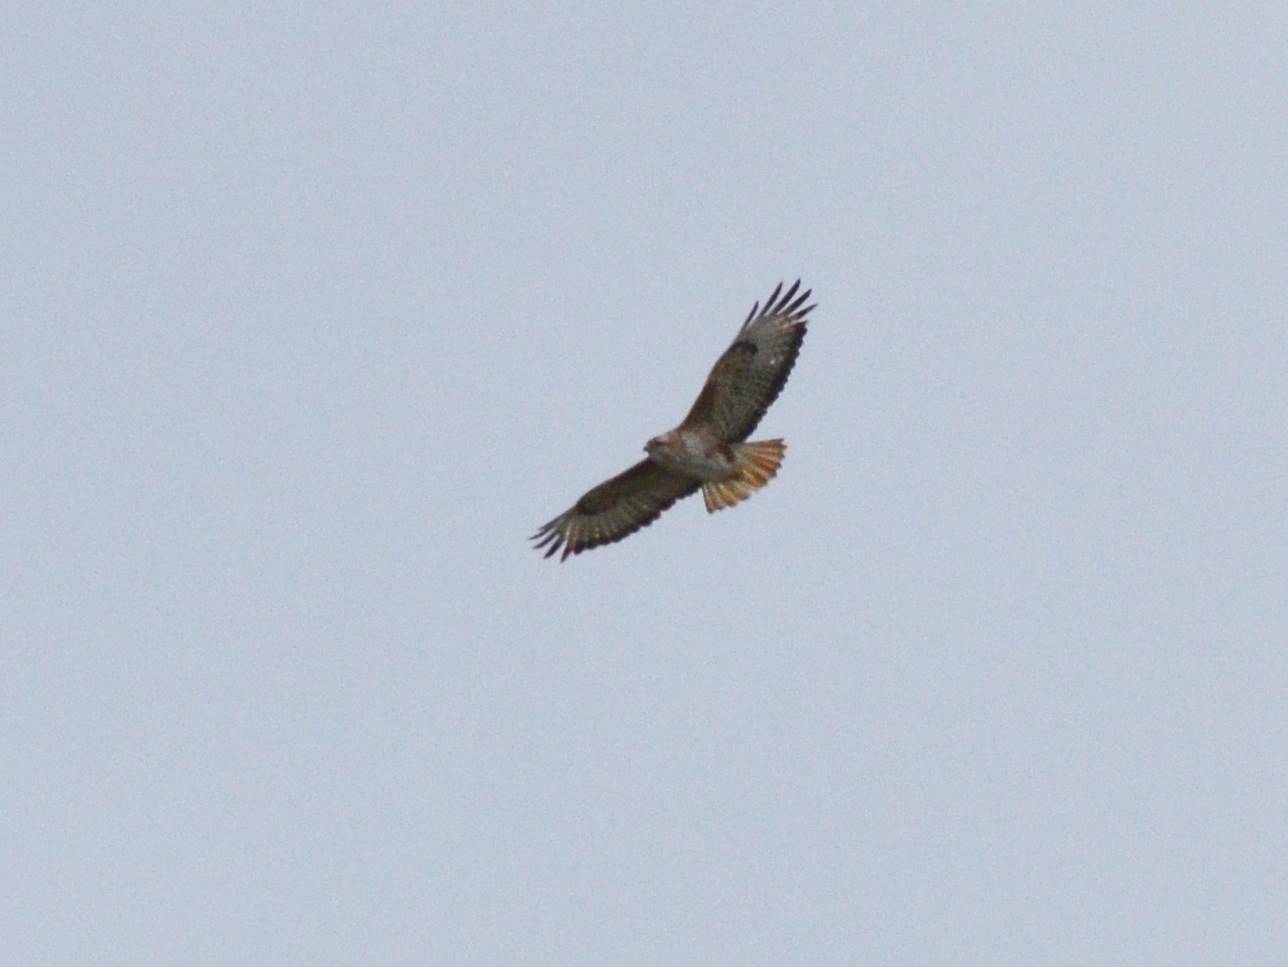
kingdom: Animalia
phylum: Chordata
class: Aves
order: Accipitriformes
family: Accipitridae
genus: Buteo
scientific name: Buteo rufinus
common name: Long-legged buzzard
